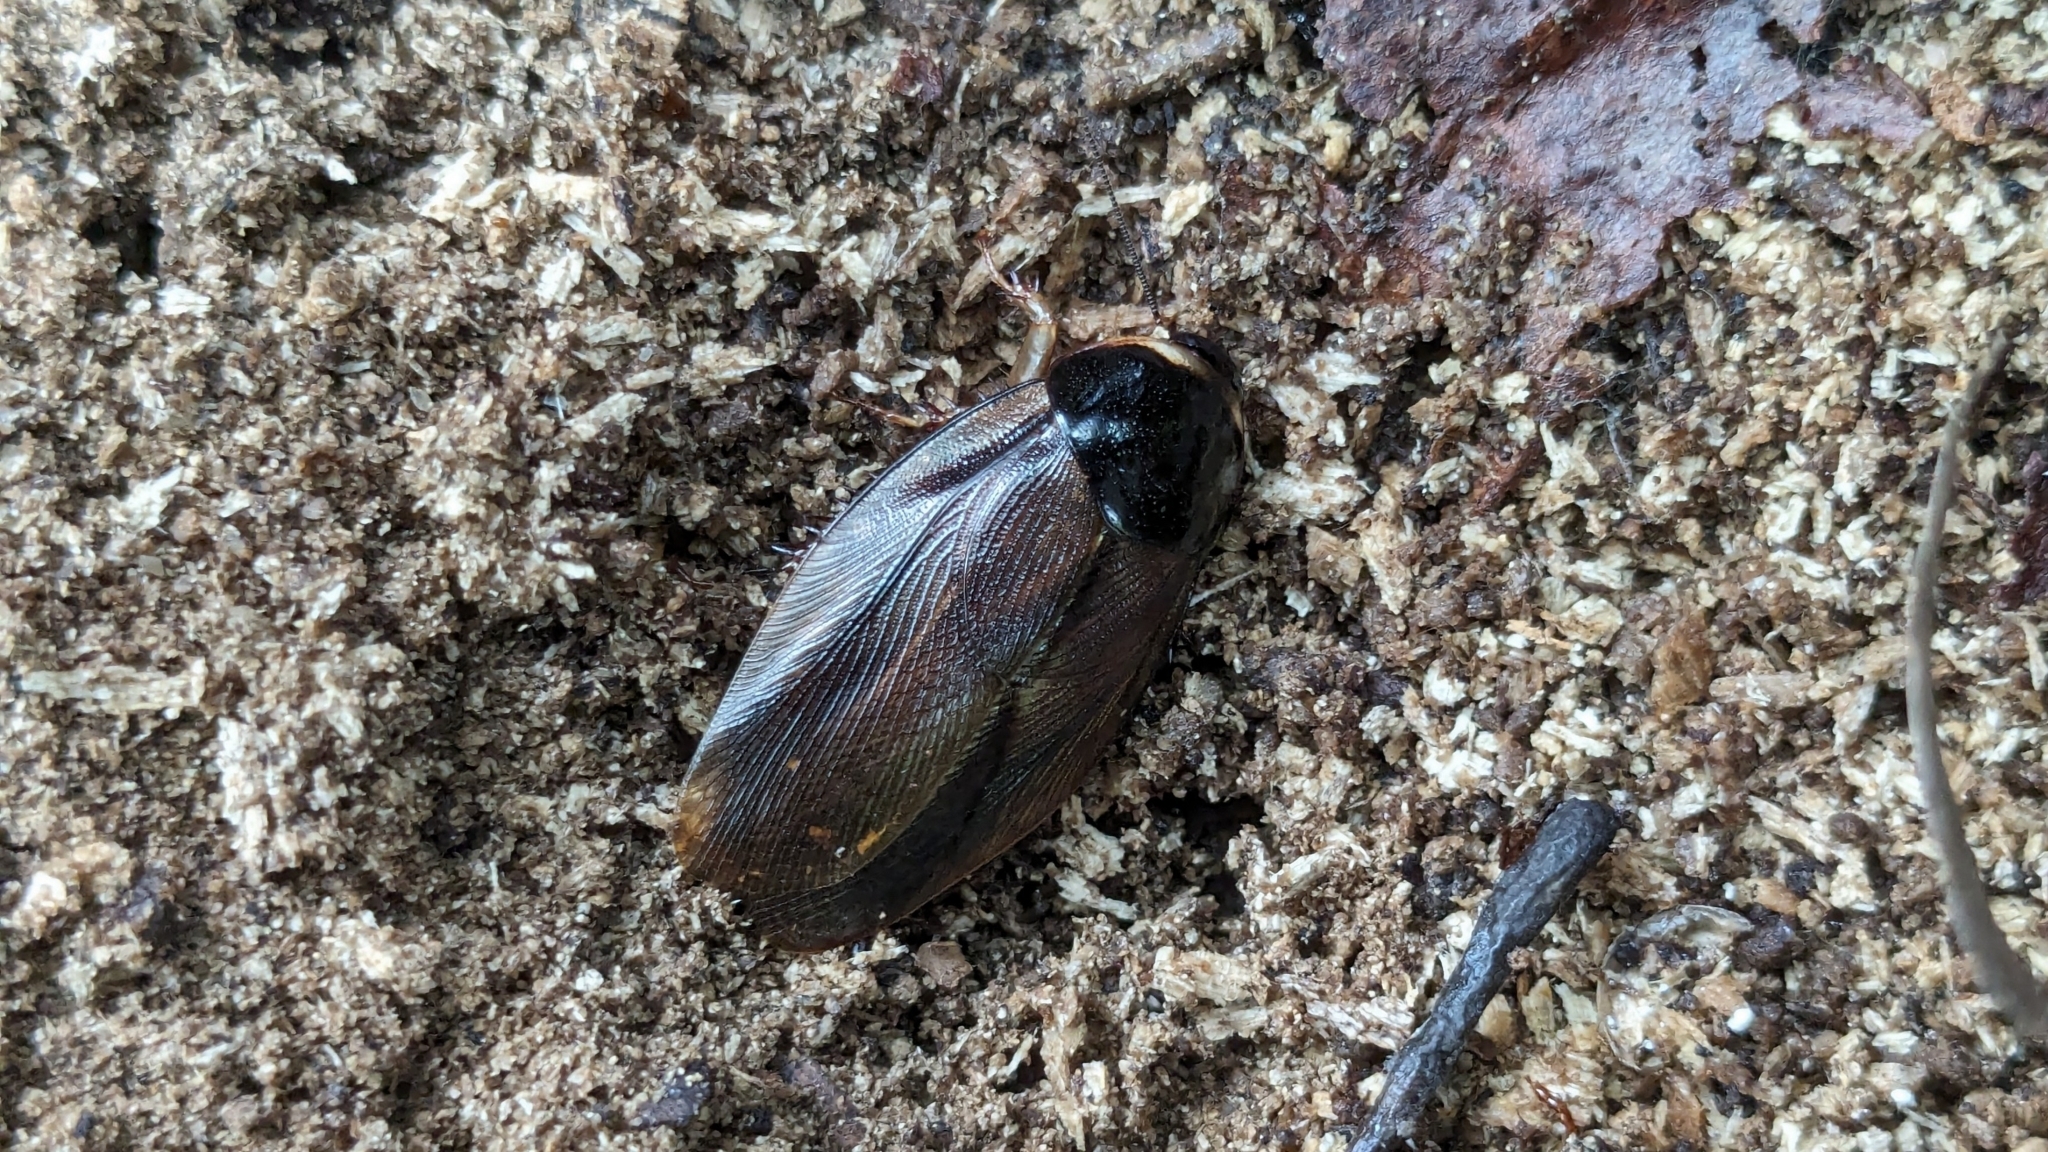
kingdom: Animalia
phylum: Arthropoda
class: Insecta
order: Blattodea
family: Blaberidae
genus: Pycnoscelus
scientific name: Pycnoscelus surinamensis
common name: Surinam cockroach
